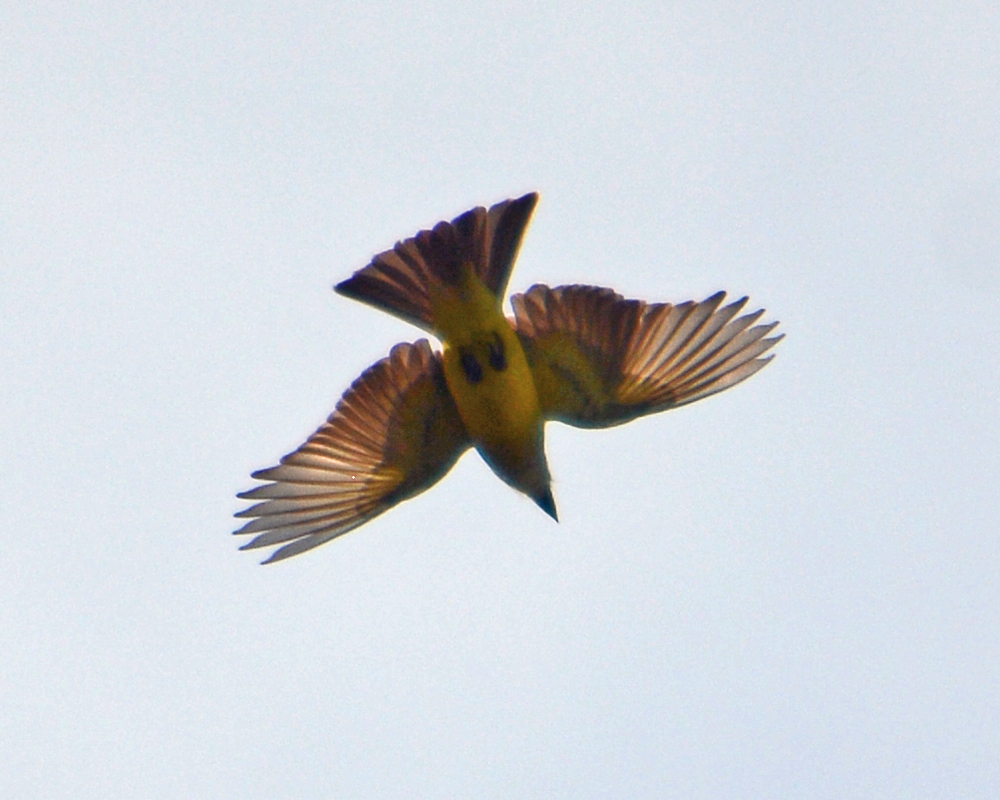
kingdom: Animalia
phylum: Chordata
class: Aves
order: Passeriformes
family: Tyrannidae
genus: Pitangus
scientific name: Pitangus sulphuratus
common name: Great kiskadee
